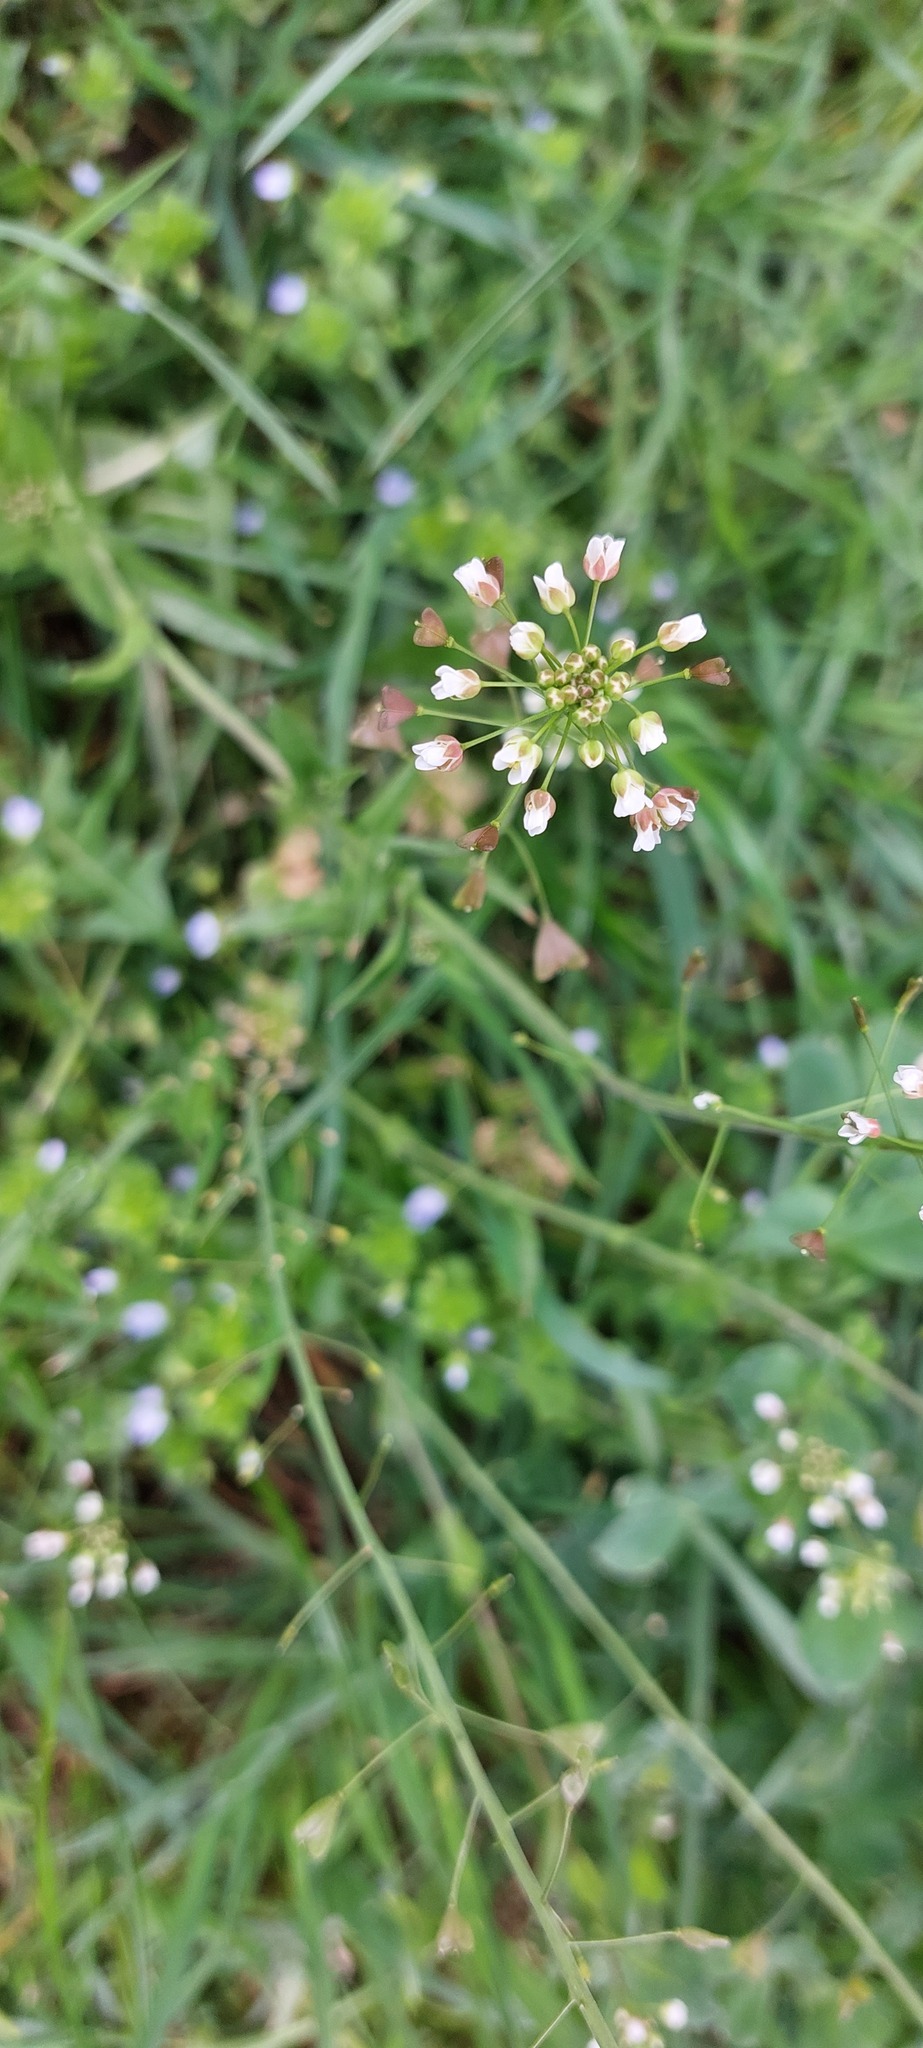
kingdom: Plantae
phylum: Tracheophyta
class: Magnoliopsida
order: Brassicales
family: Brassicaceae
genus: Capsella
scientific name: Capsella bursa-pastoris
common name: Shepherd's purse
